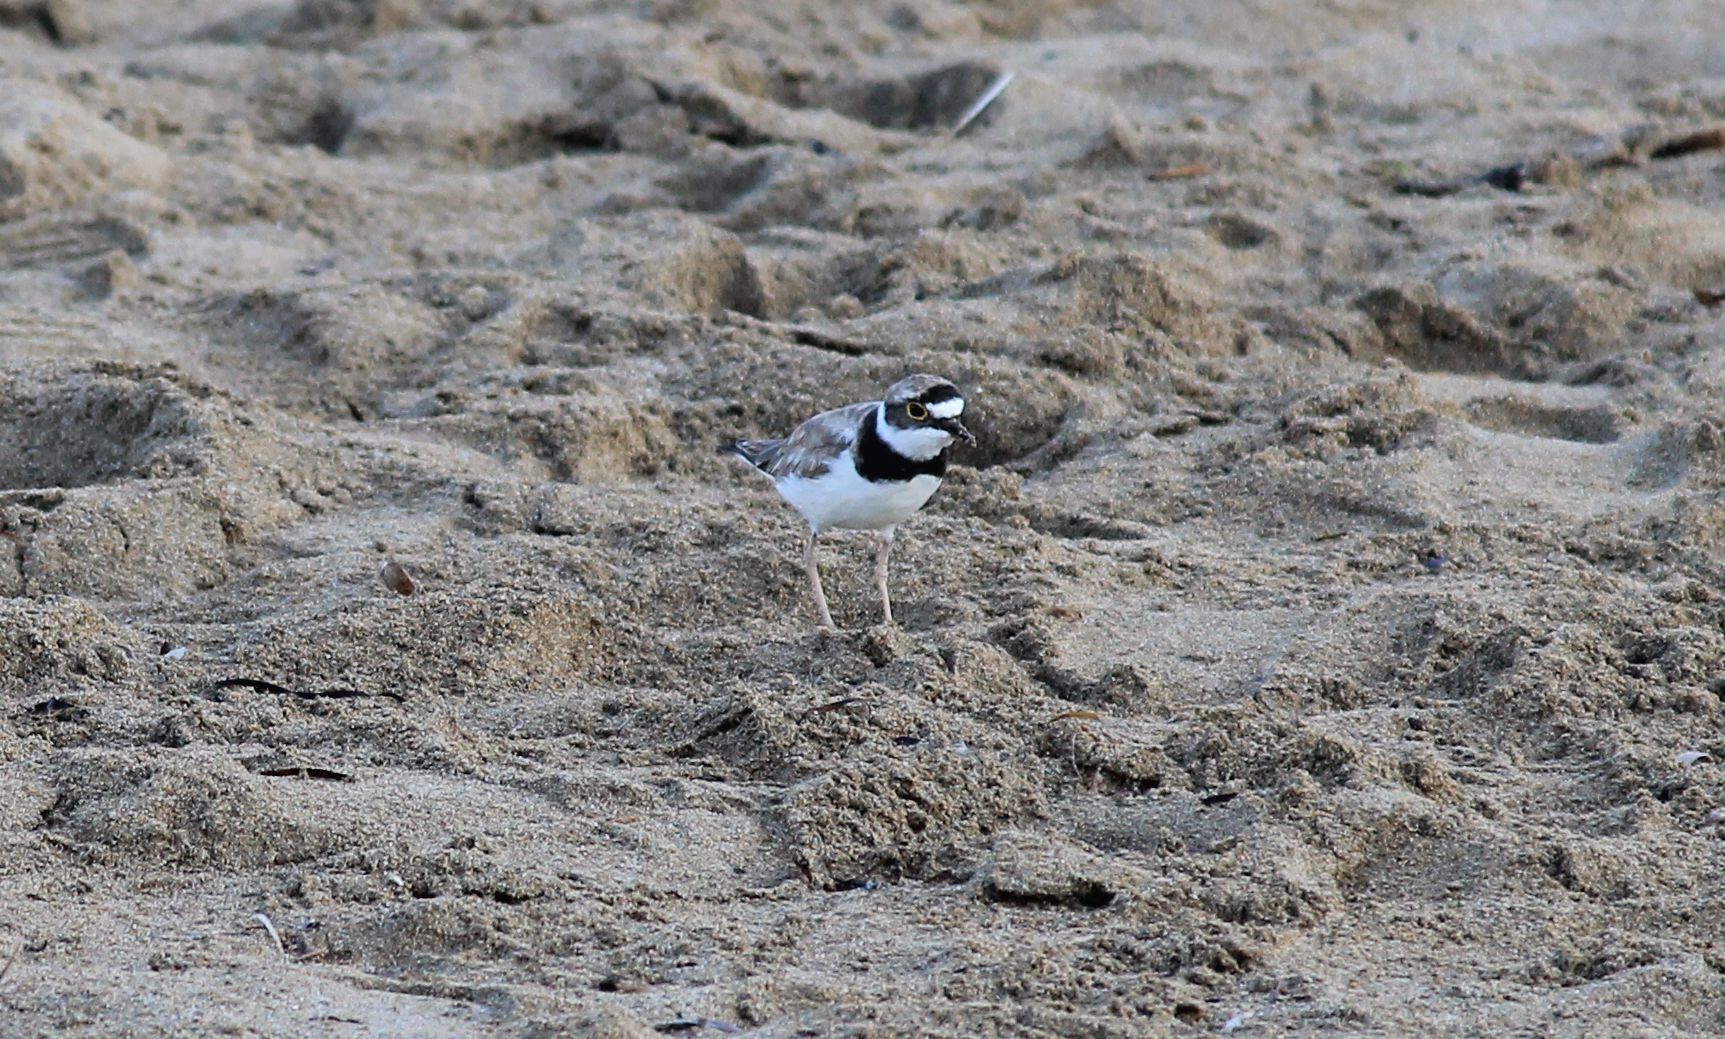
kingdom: Animalia
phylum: Chordata
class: Aves
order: Charadriiformes
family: Charadriidae
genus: Charadrius
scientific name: Charadrius dubius
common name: Little ringed plover
